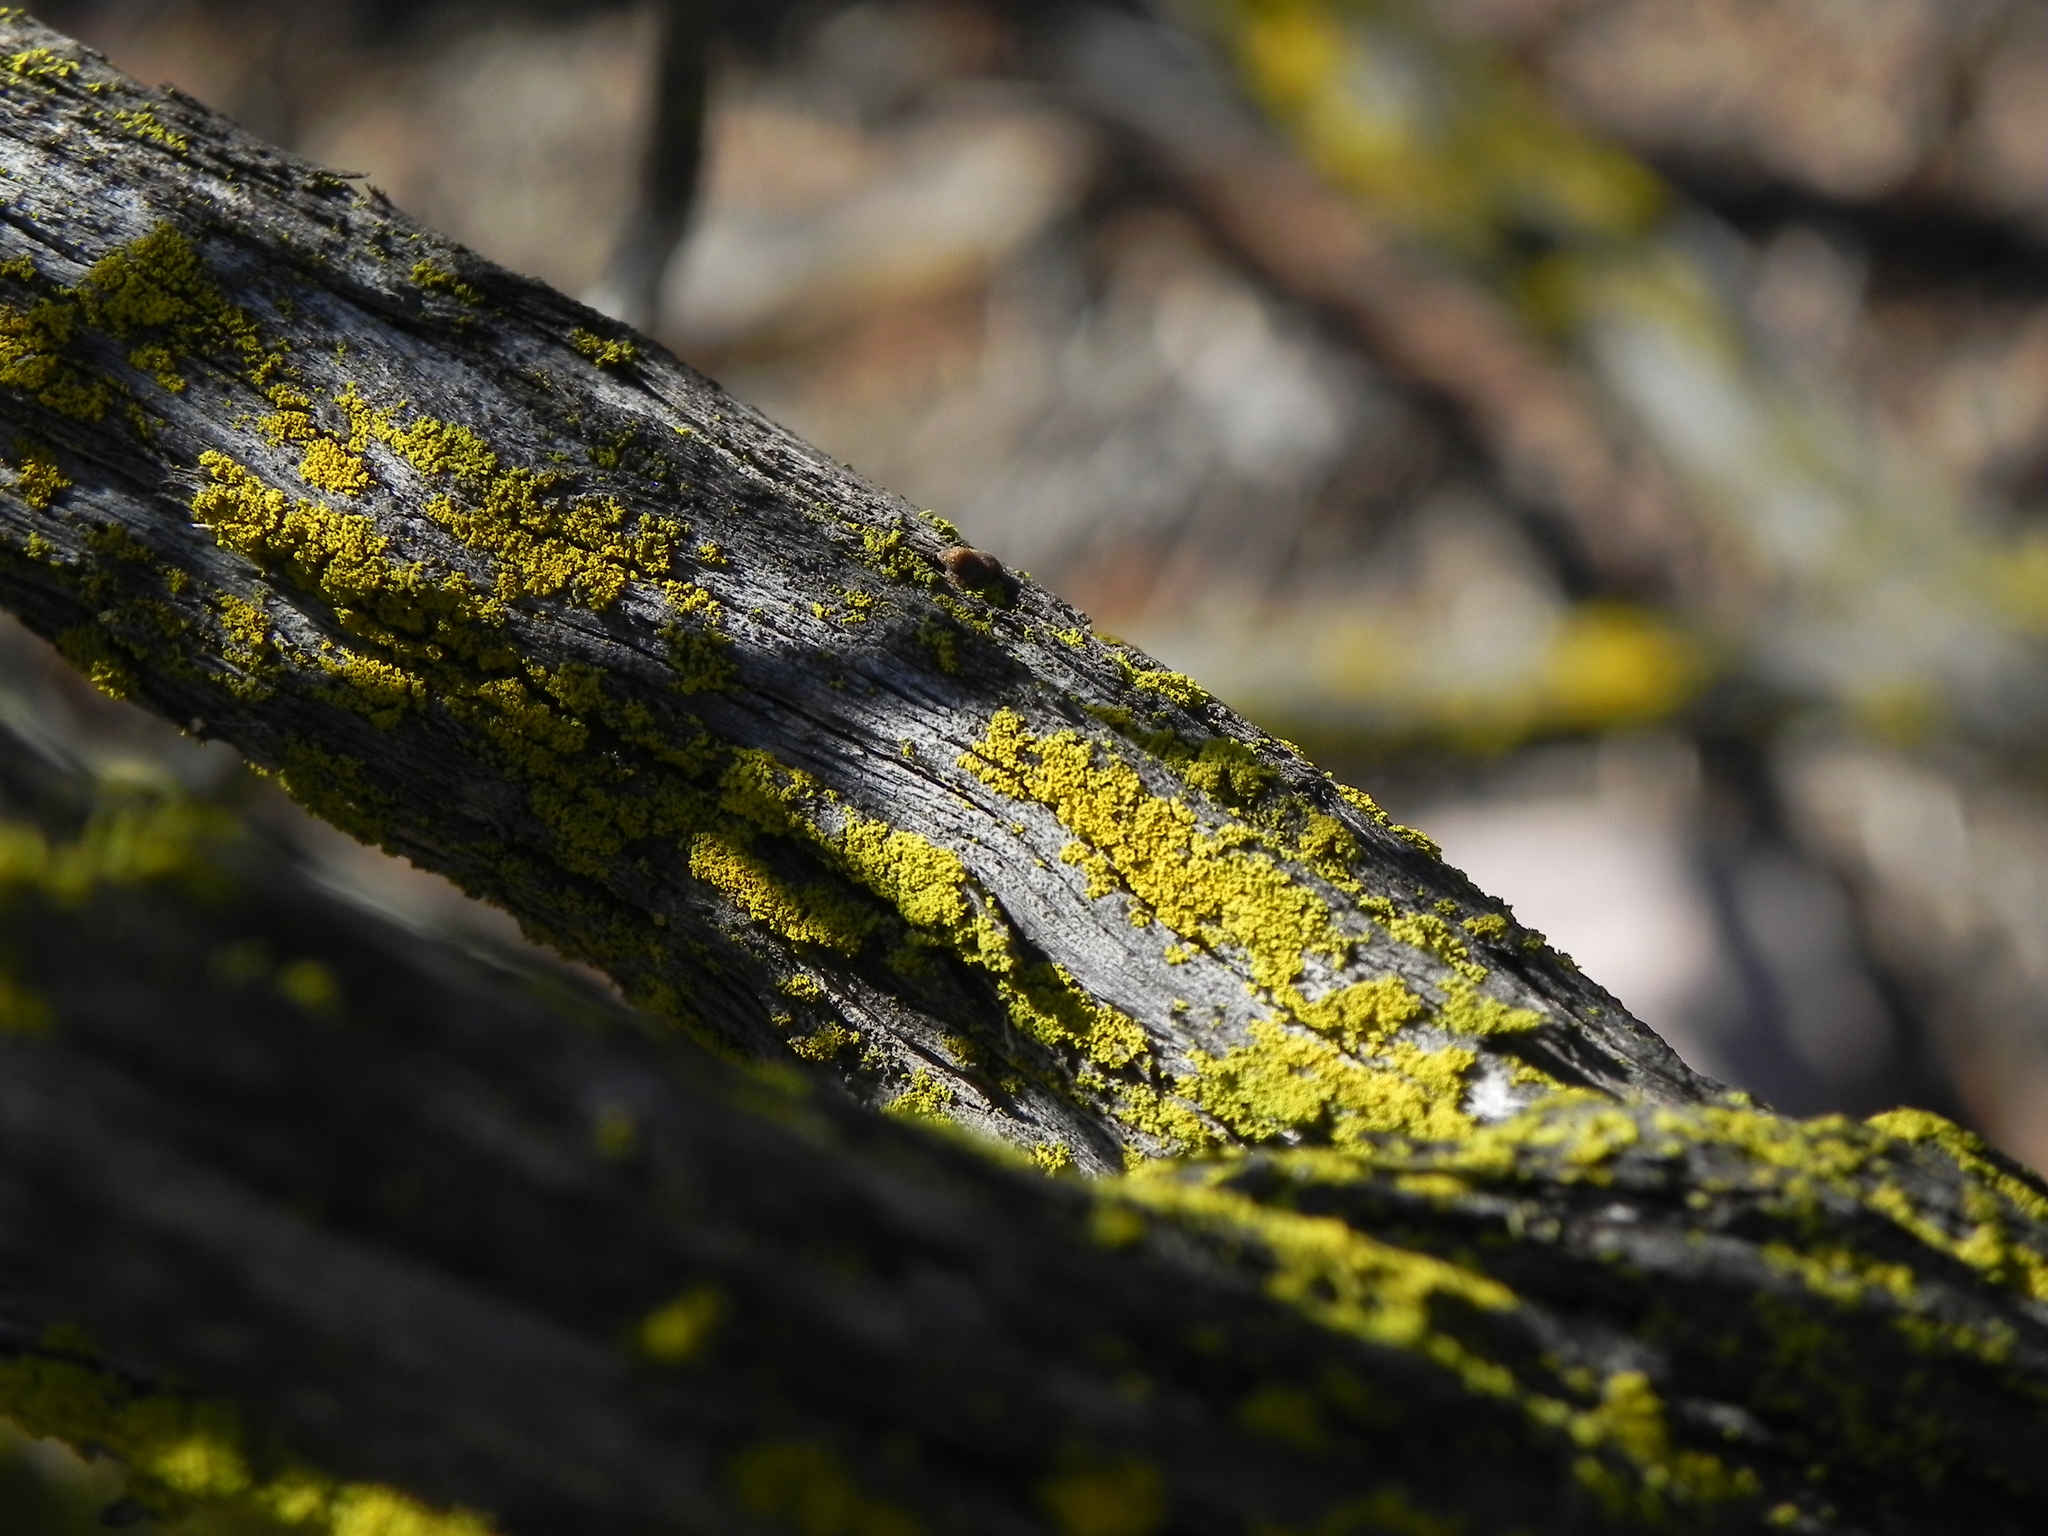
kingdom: Fungi
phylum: Ascomycota
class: Candelariomycetes
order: Candelariales
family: Candelariaceae
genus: Candelaria
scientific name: Candelaria pacifica
